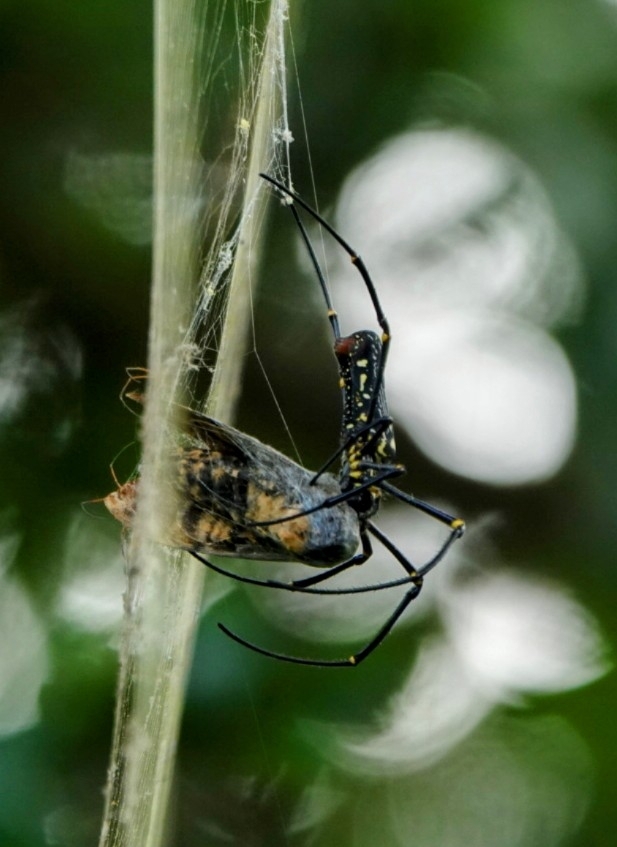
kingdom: Animalia
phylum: Arthropoda
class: Arachnida
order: Araneae
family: Araneidae
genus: Nephila
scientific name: Nephila pilipes
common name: Giant golden orb weaver
